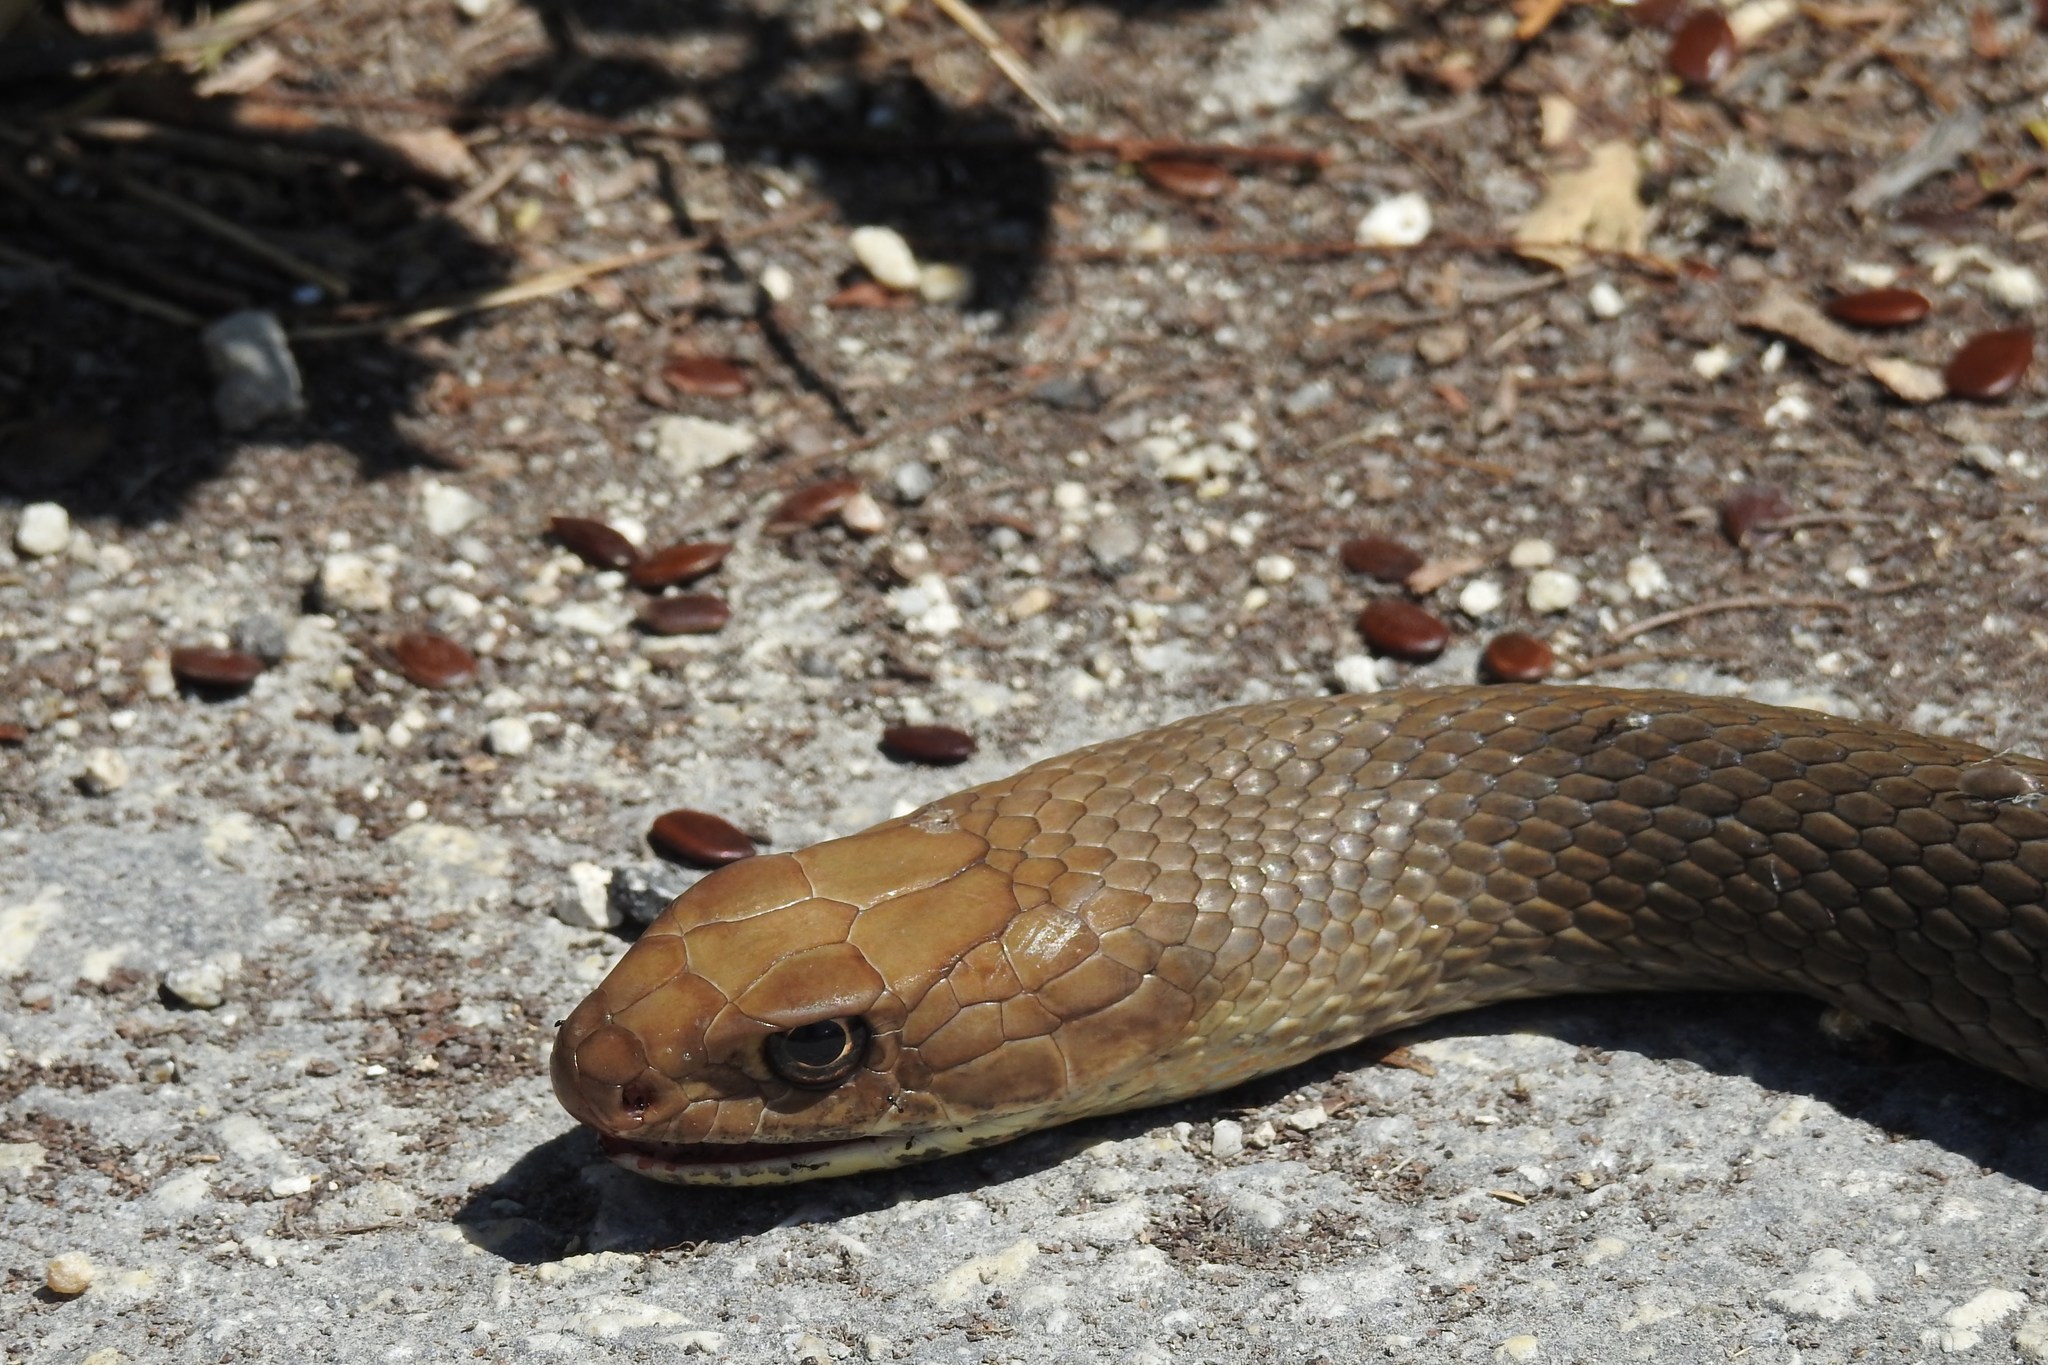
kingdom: Animalia
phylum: Chordata
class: Squamata
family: Colubridae
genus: Masticophis
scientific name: Masticophis mentovarius
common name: Neotropical whip snake
